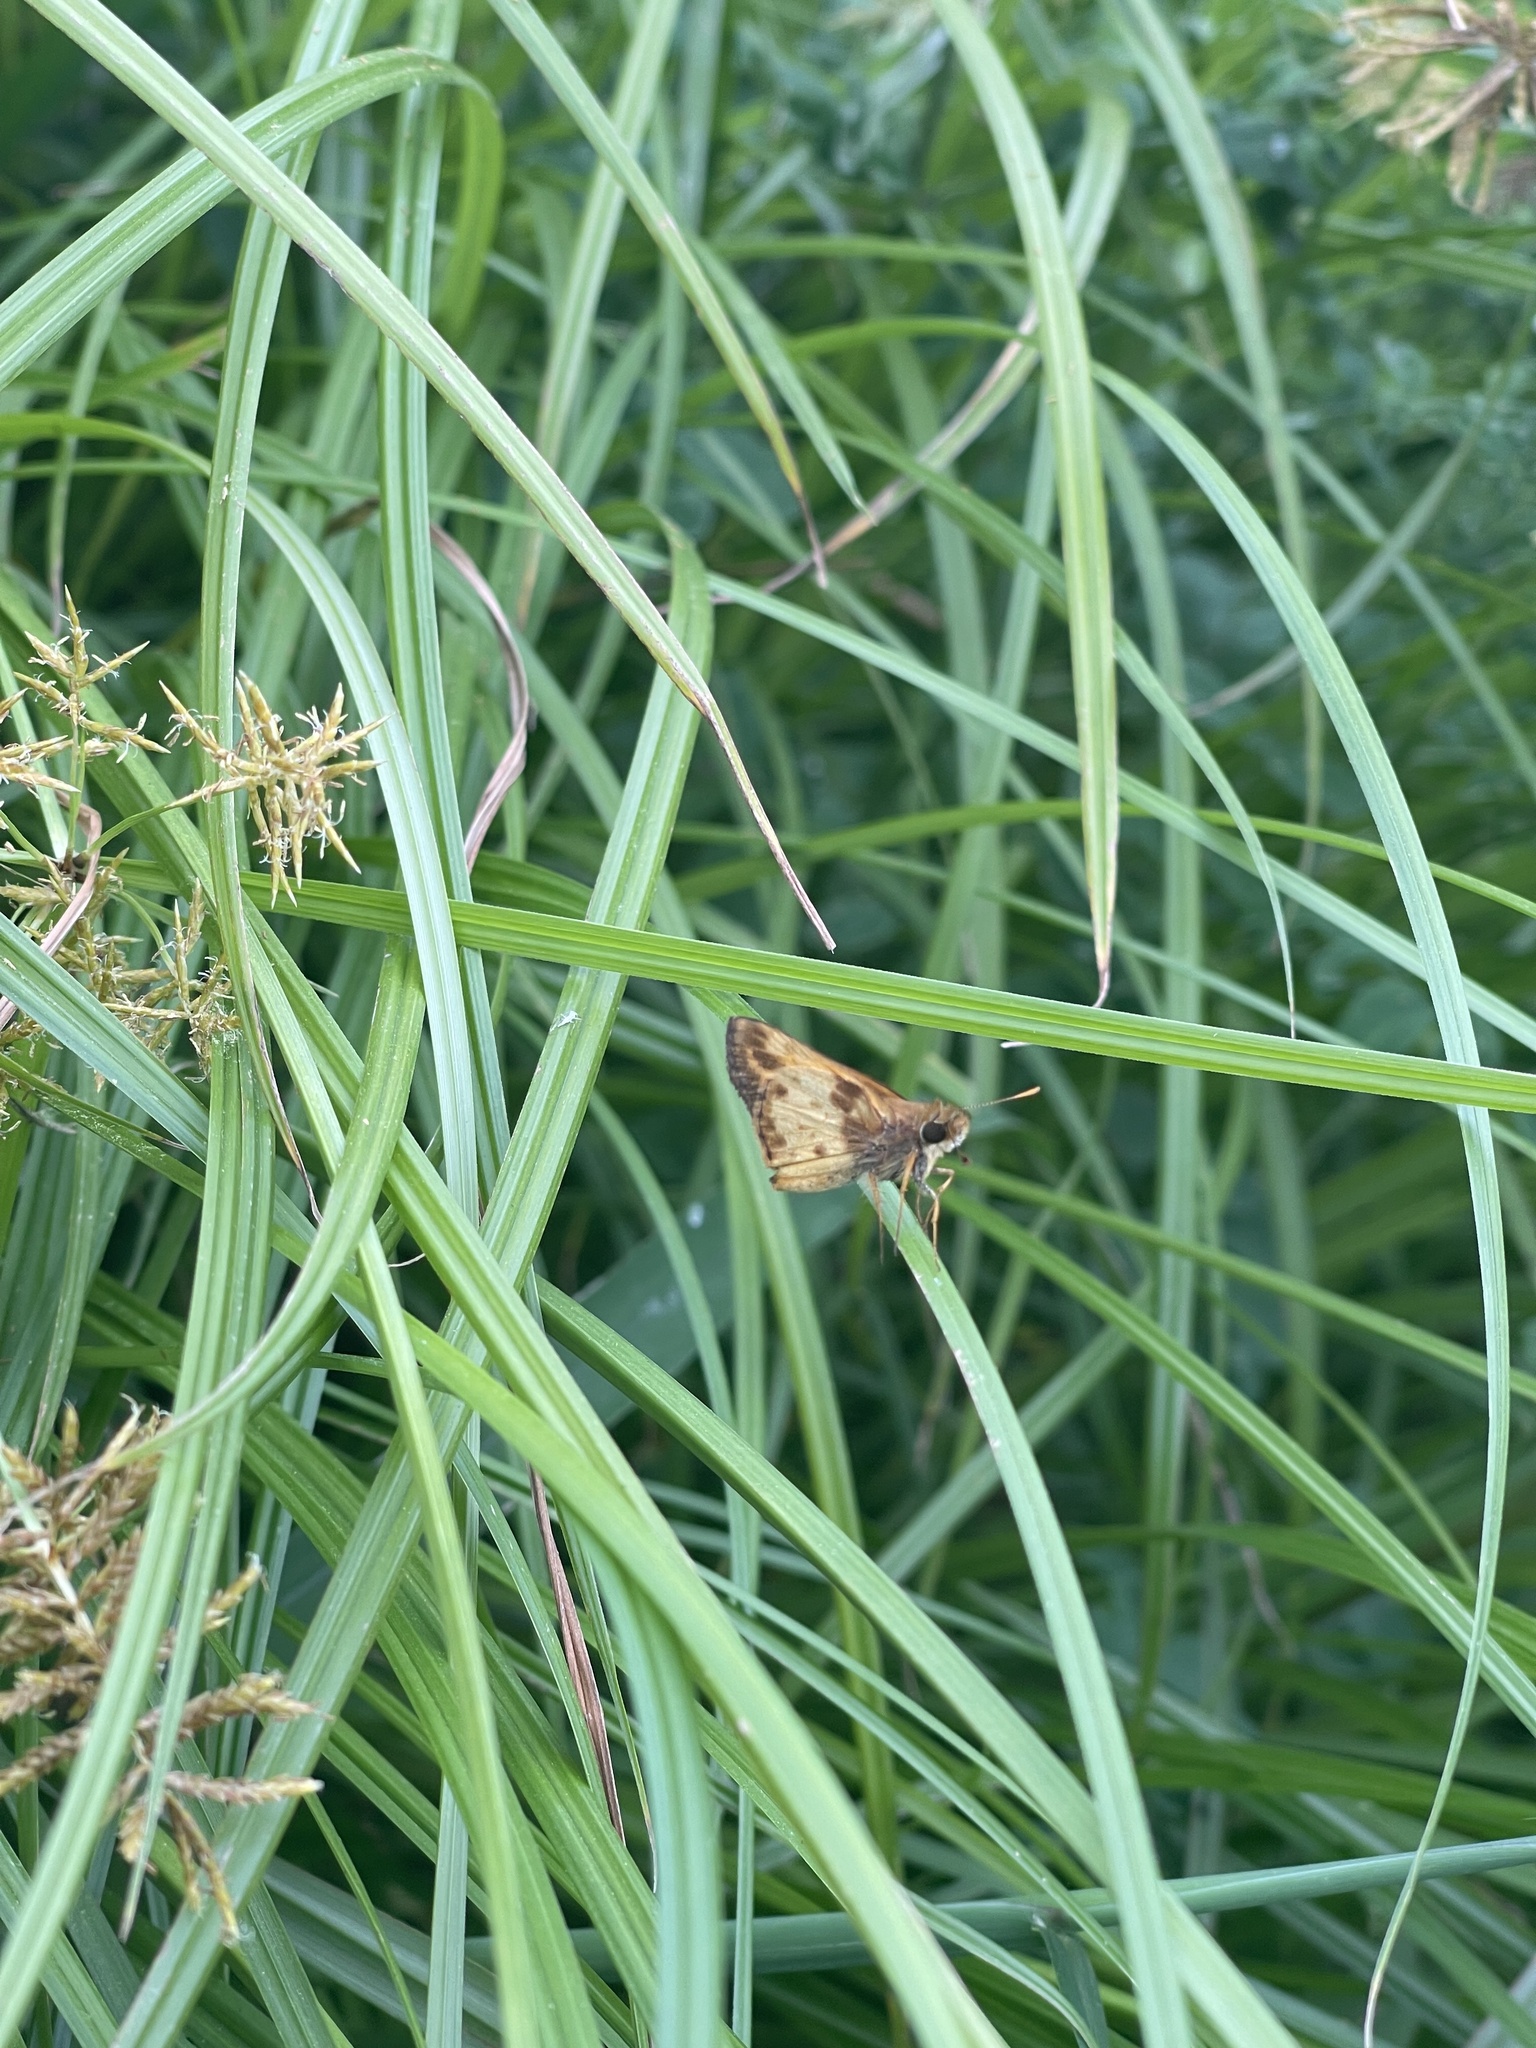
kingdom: Animalia
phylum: Arthropoda
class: Insecta
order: Lepidoptera
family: Hesperiidae
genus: Lon
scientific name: Lon zabulon
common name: Zabulon skipper
